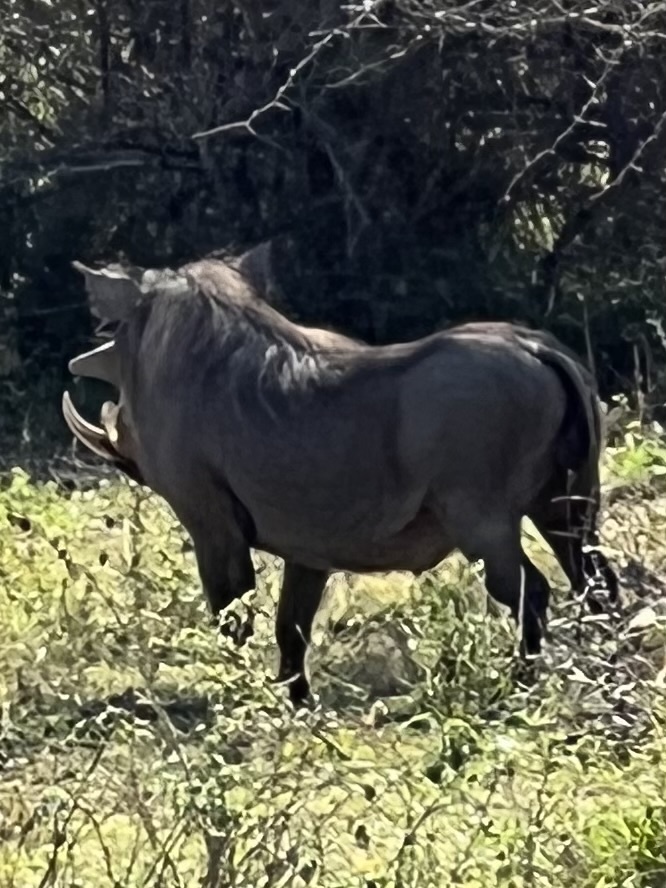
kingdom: Animalia
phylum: Chordata
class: Mammalia
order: Artiodactyla
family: Suidae
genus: Phacochoerus
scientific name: Phacochoerus africanus
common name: Common warthog
